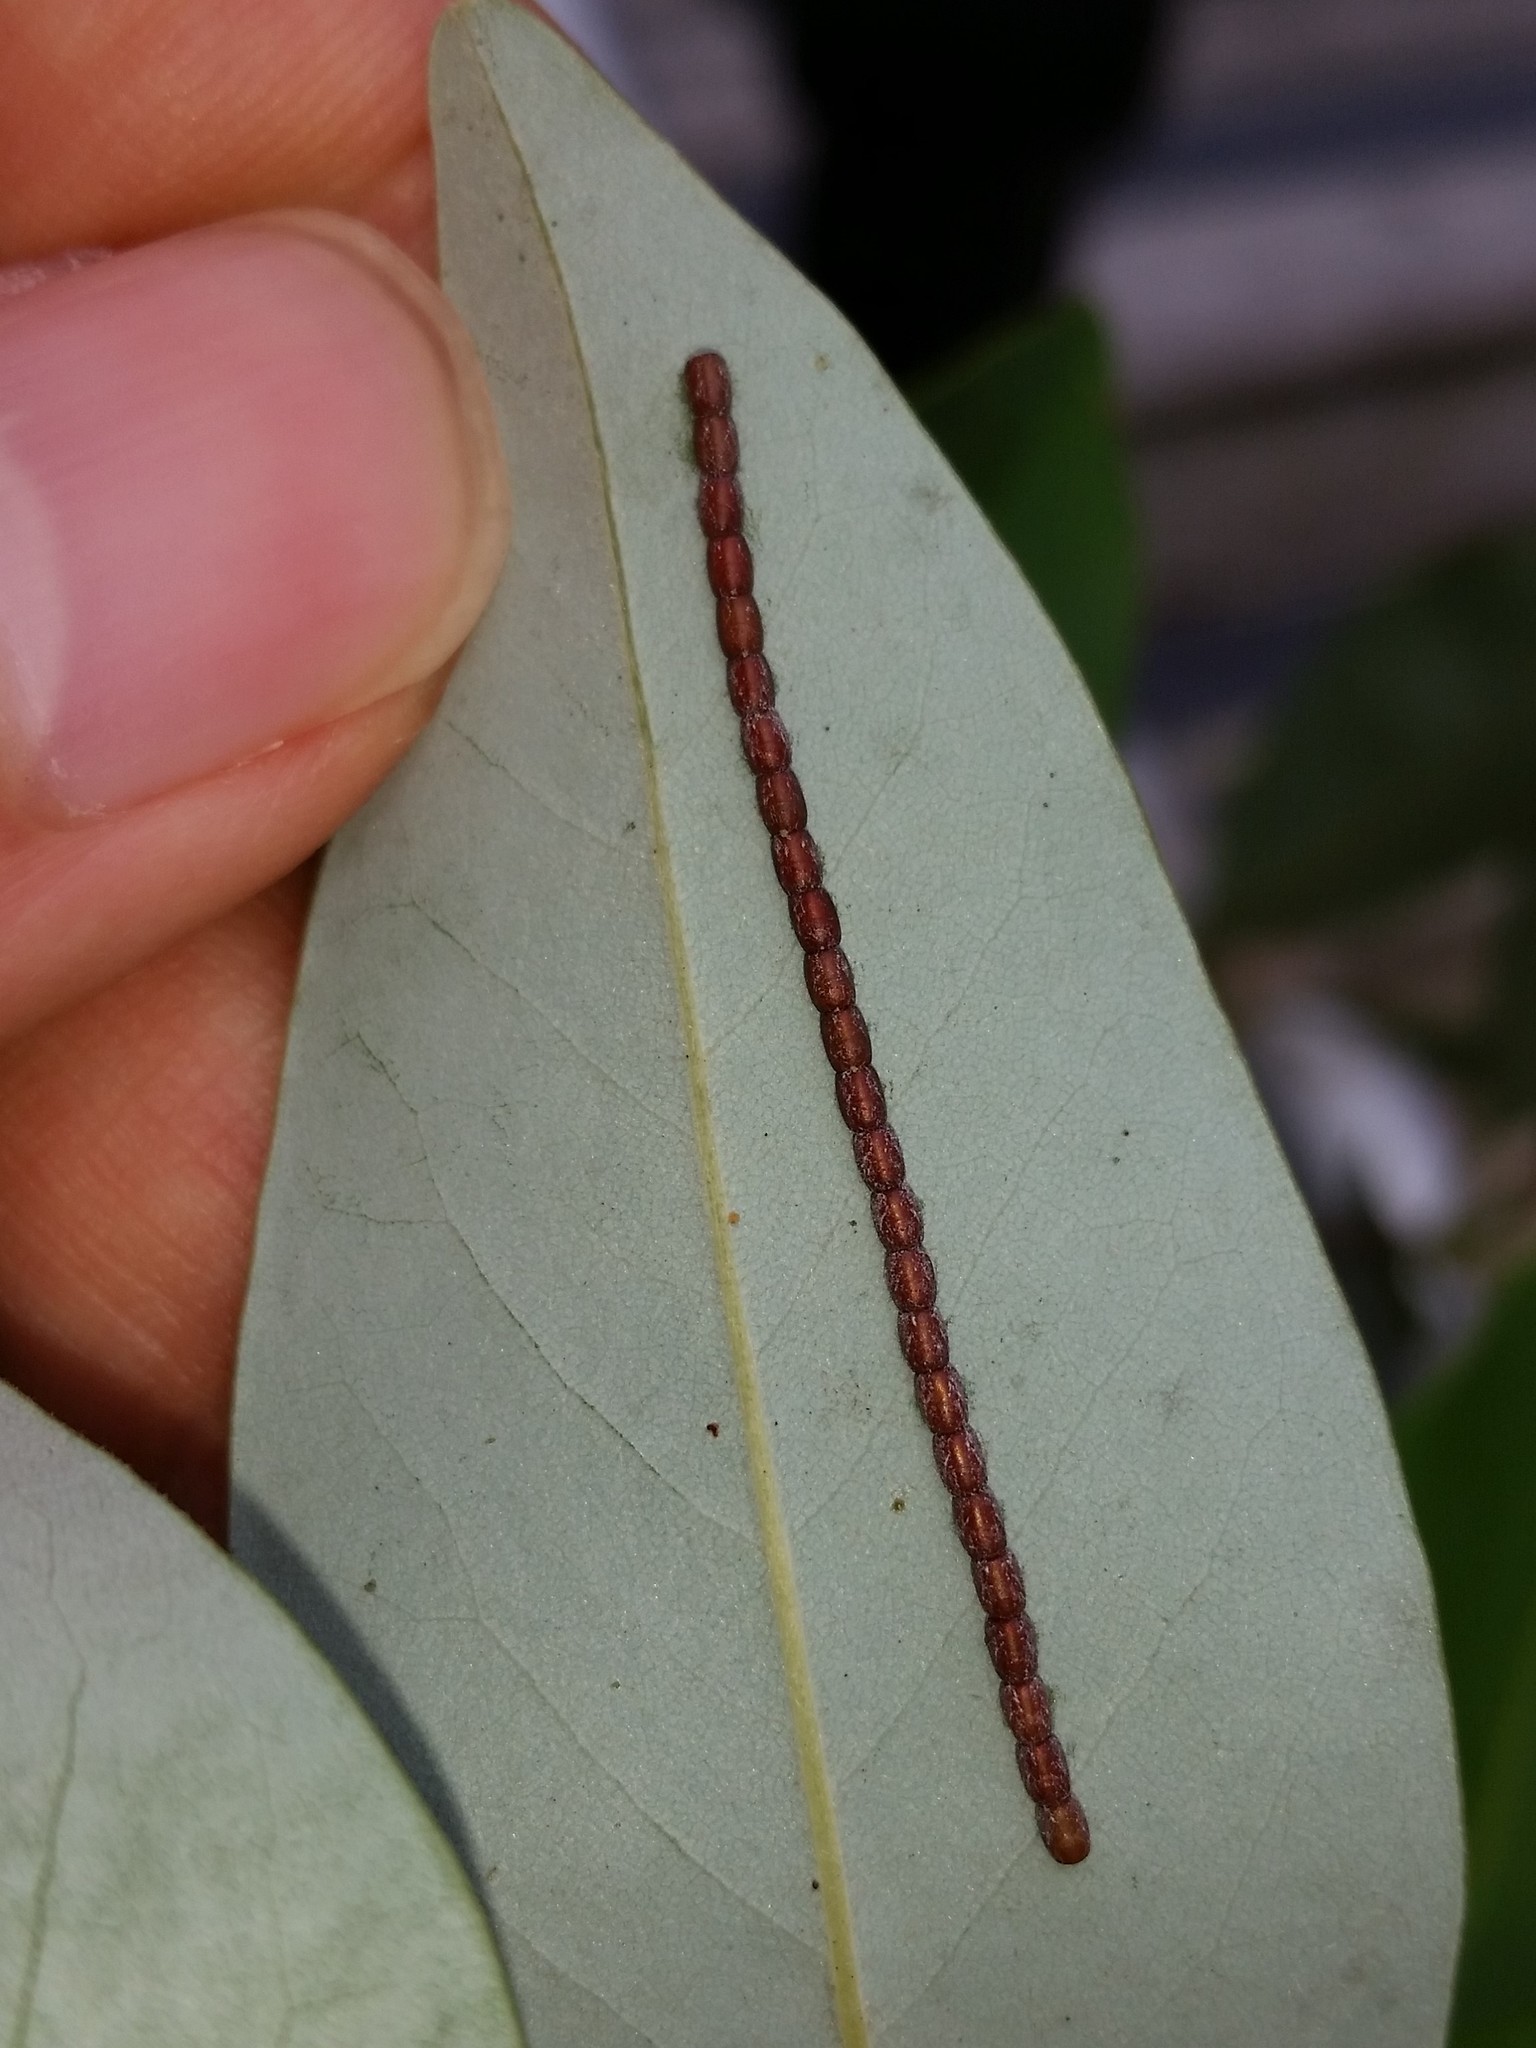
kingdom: Animalia
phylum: Arthropoda
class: Insecta
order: Hemiptera
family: Coreidae
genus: Leptoglossus
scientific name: Leptoglossus fulvicornis
